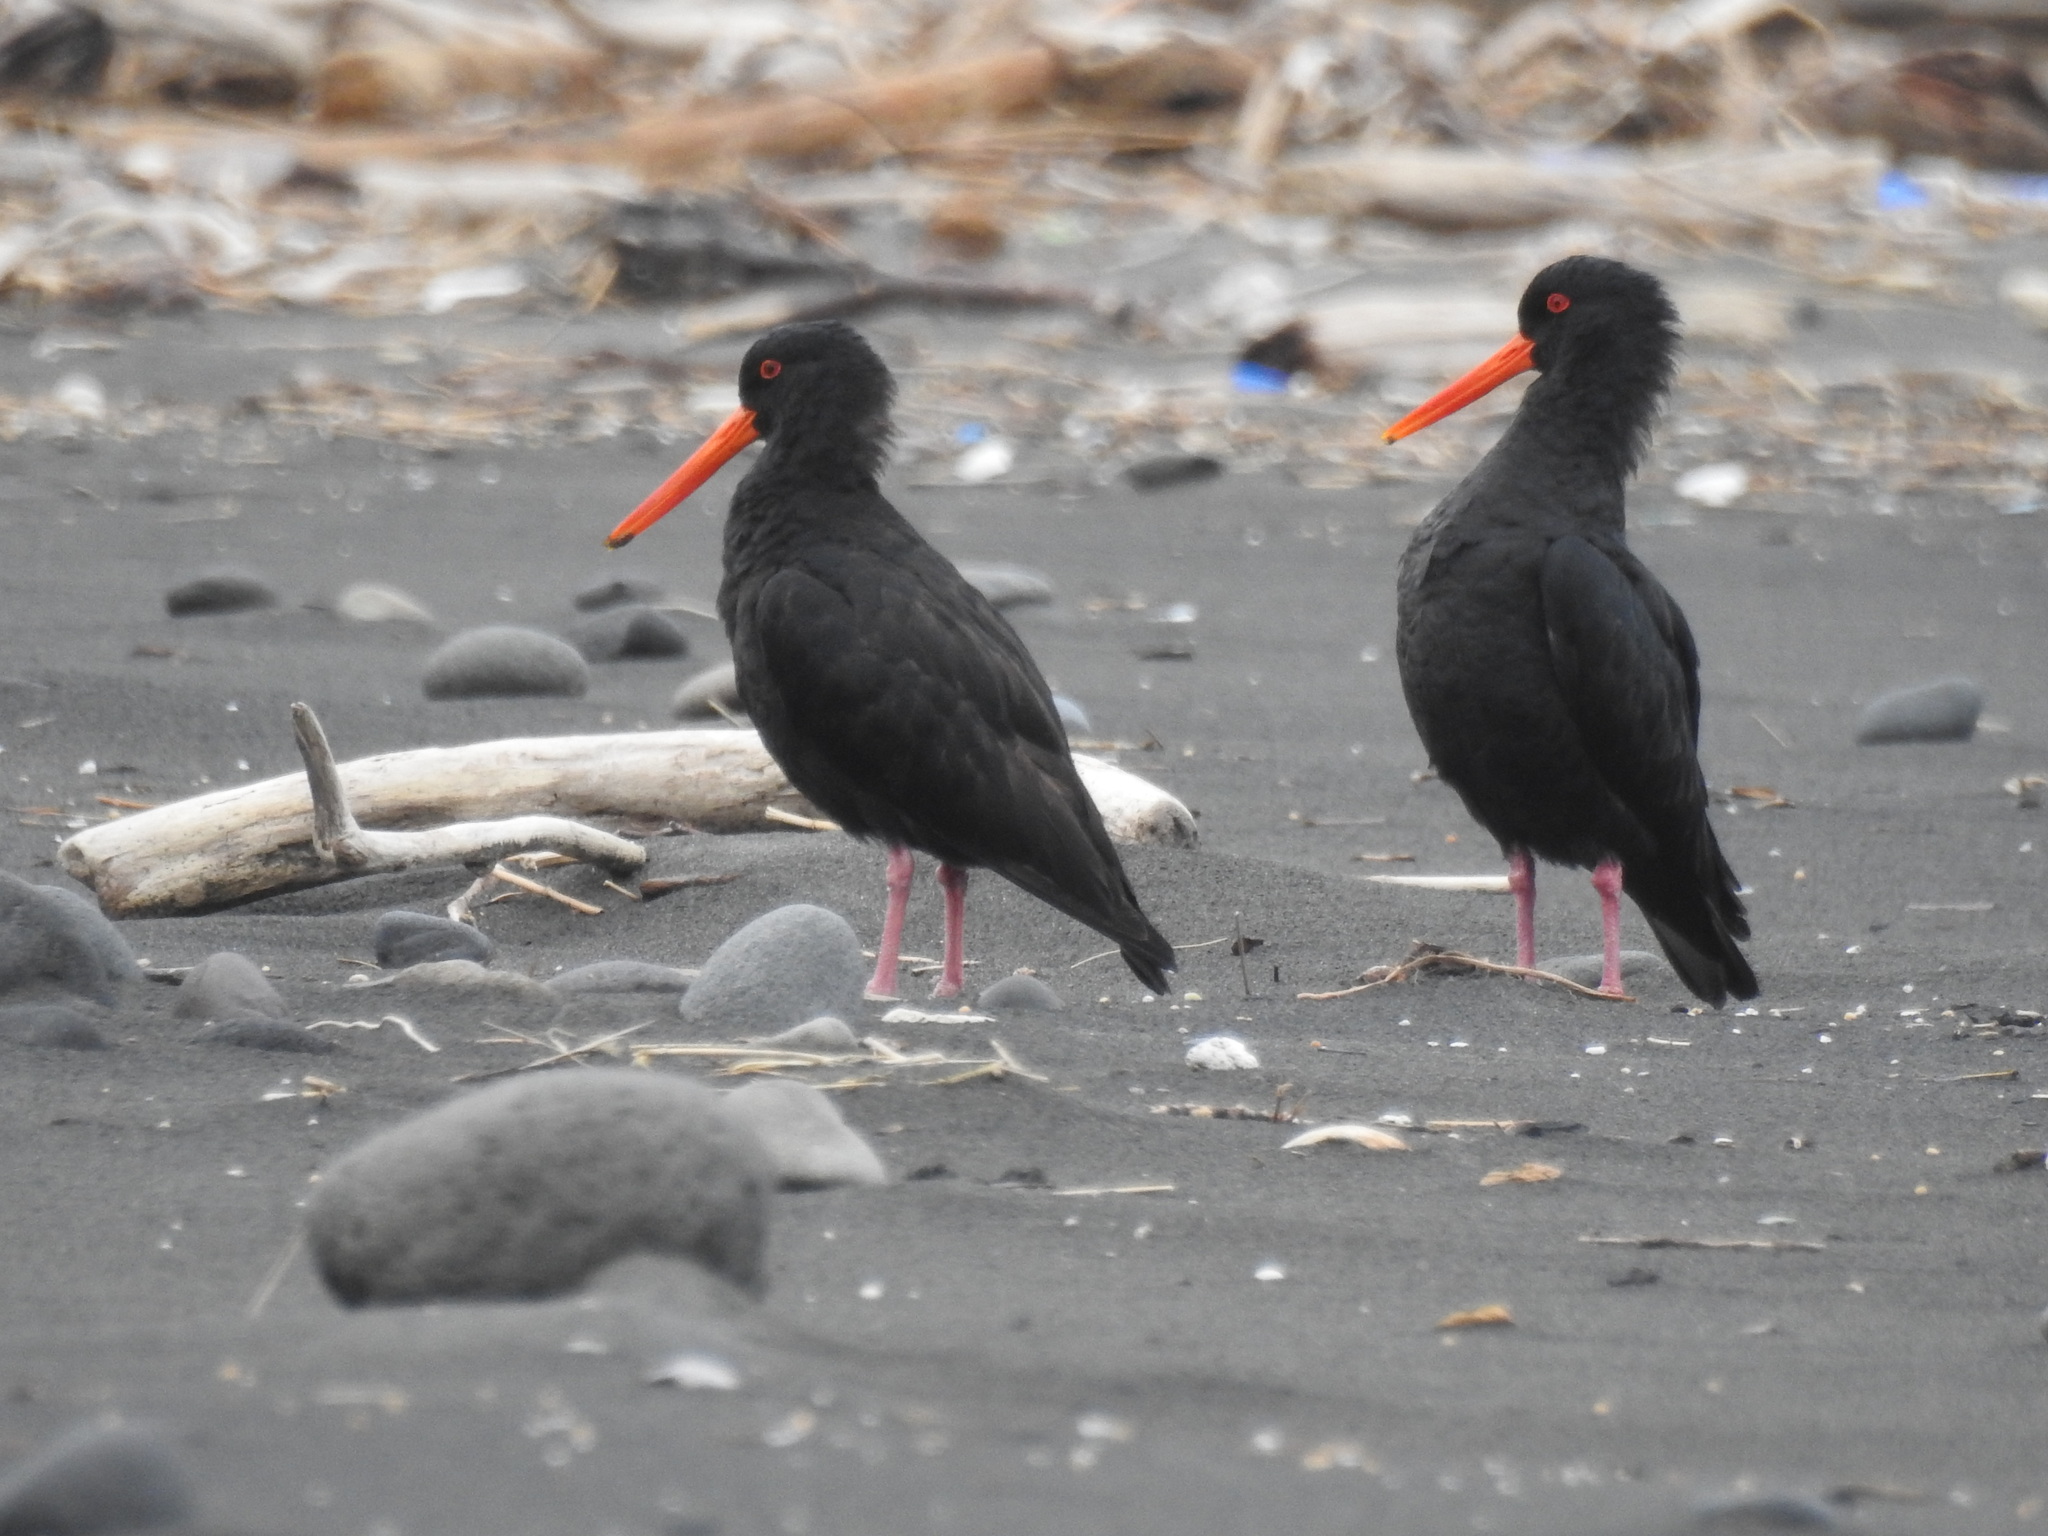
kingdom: Animalia
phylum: Chordata
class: Aves
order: Charadriiformes
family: Haematopodidae
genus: Haematopus
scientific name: Haematopus unicolor
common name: Variable oystercatcher
